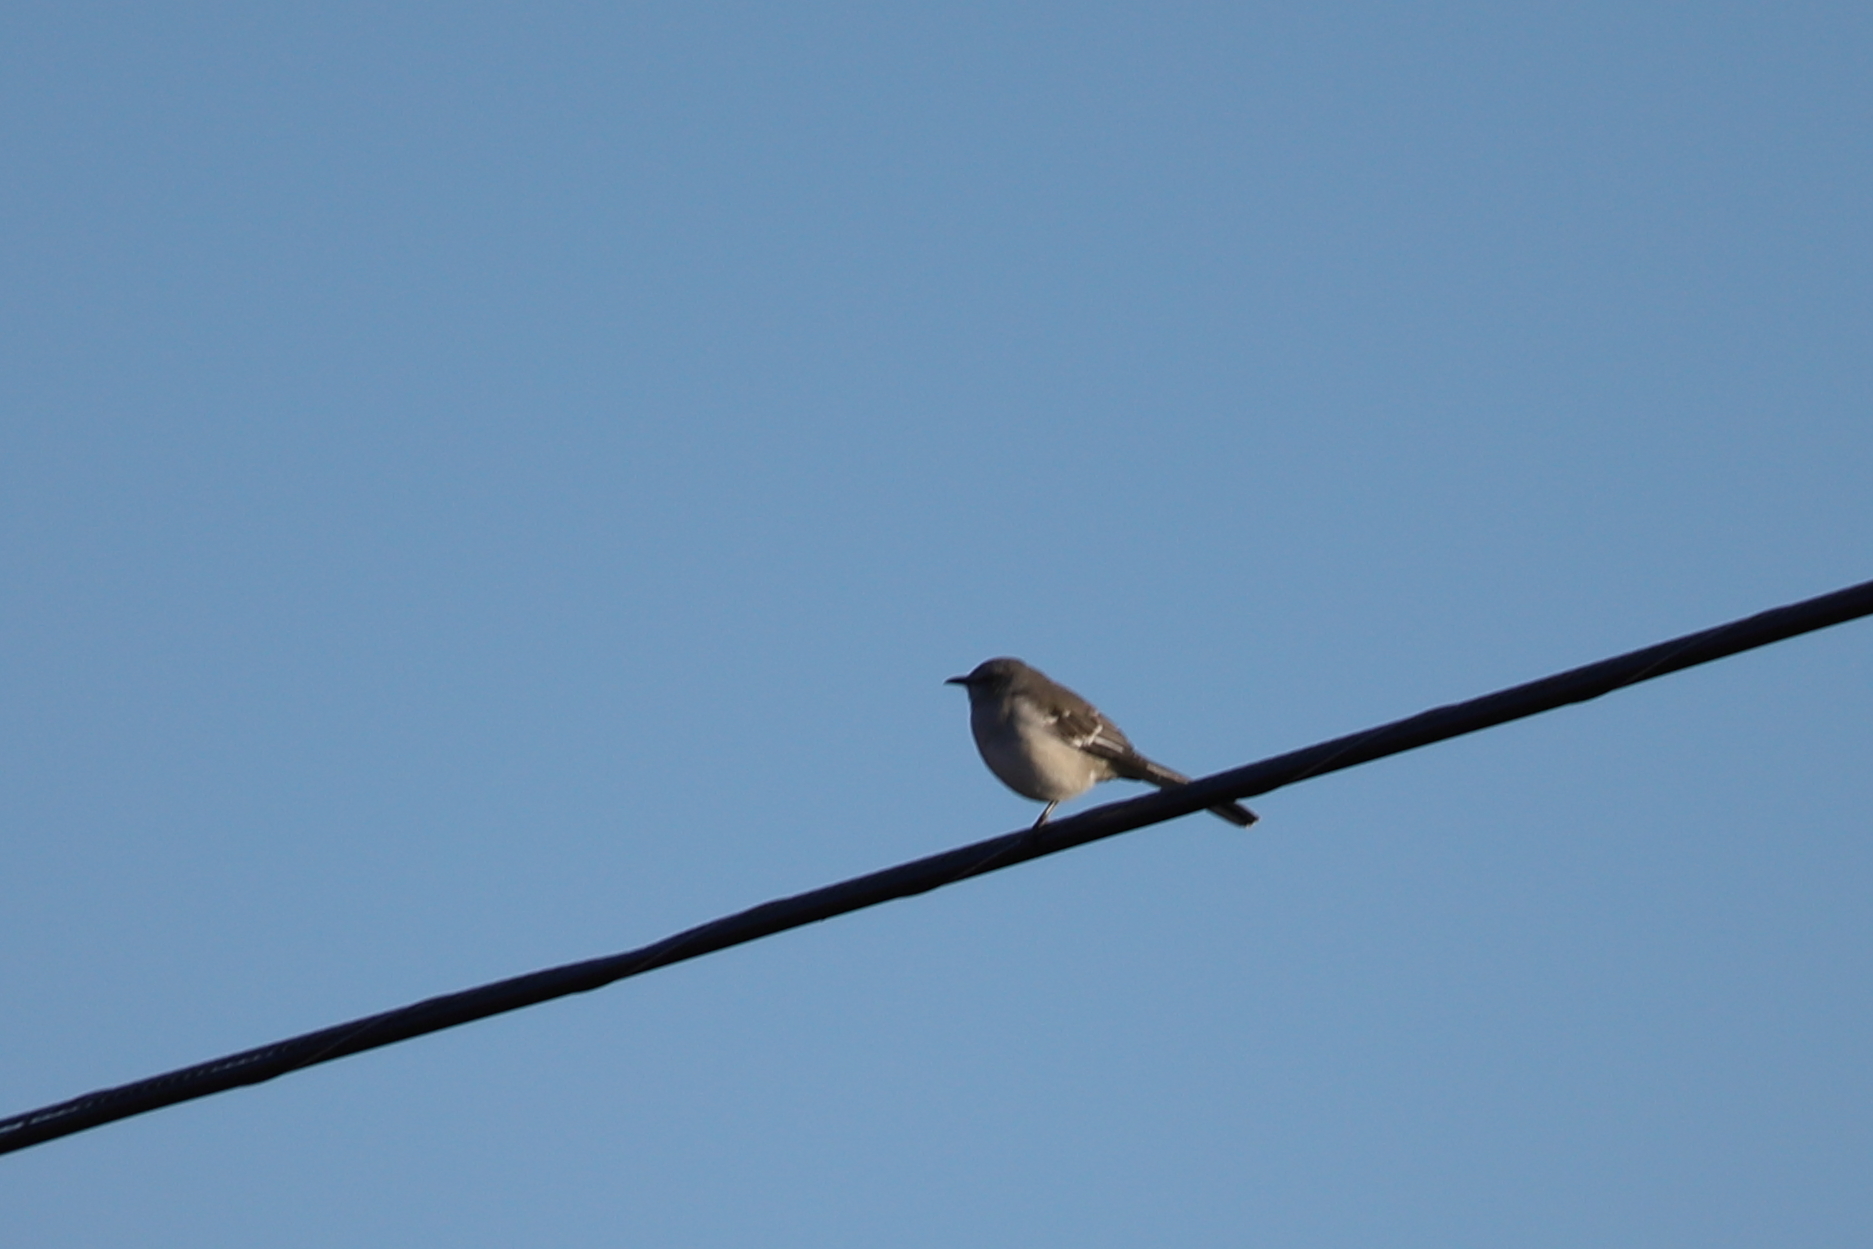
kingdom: Animalia
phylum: Chordata
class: Aves
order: Passeriformes
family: Mimidae
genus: Mimus
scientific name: Mimus polyglottos
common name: Northern mockingbird
